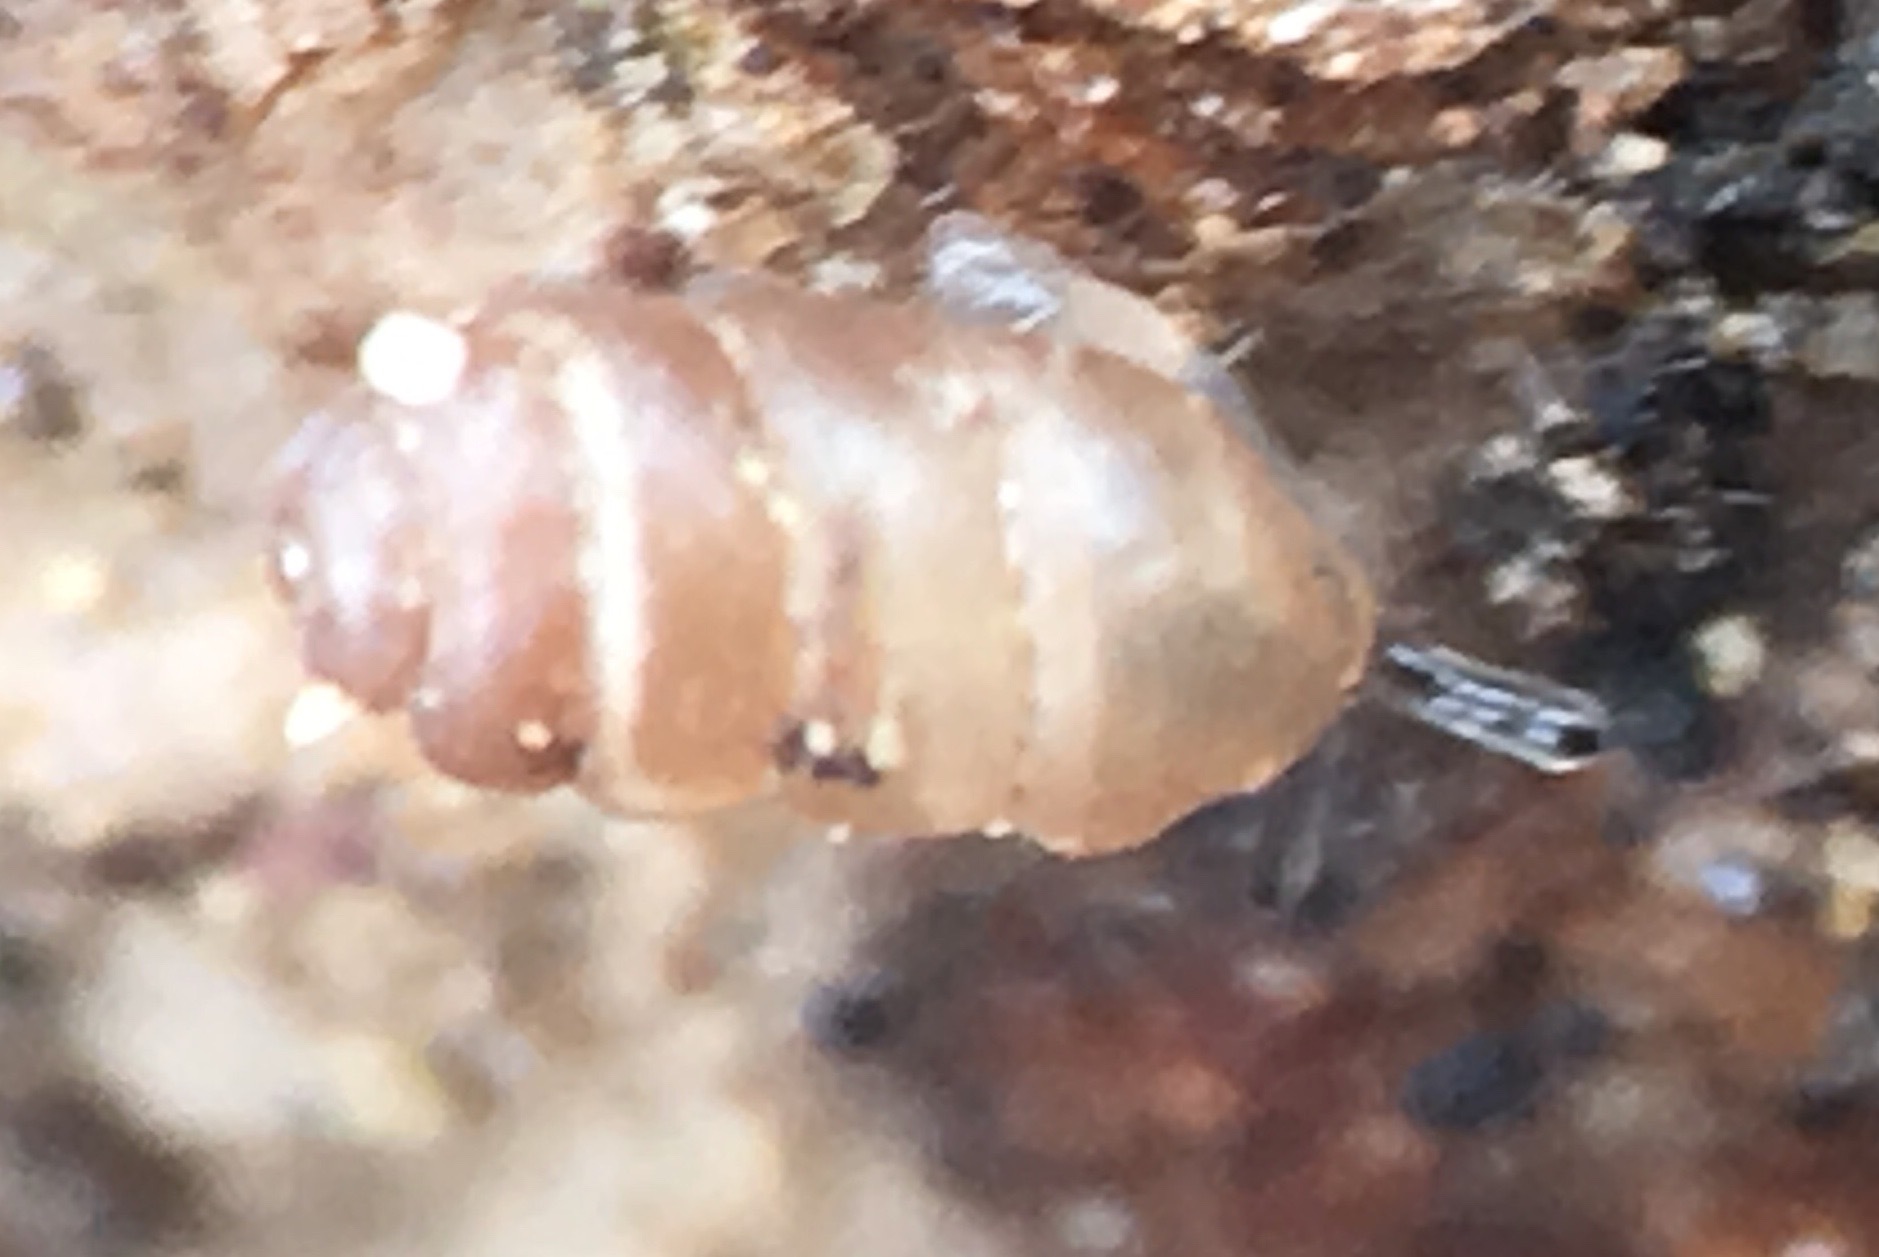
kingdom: Animalia
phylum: Mollusca
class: Gastropoda
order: Stylommatophora
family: Vertiginidae
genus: Vertigo
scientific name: Vertigo clementina
